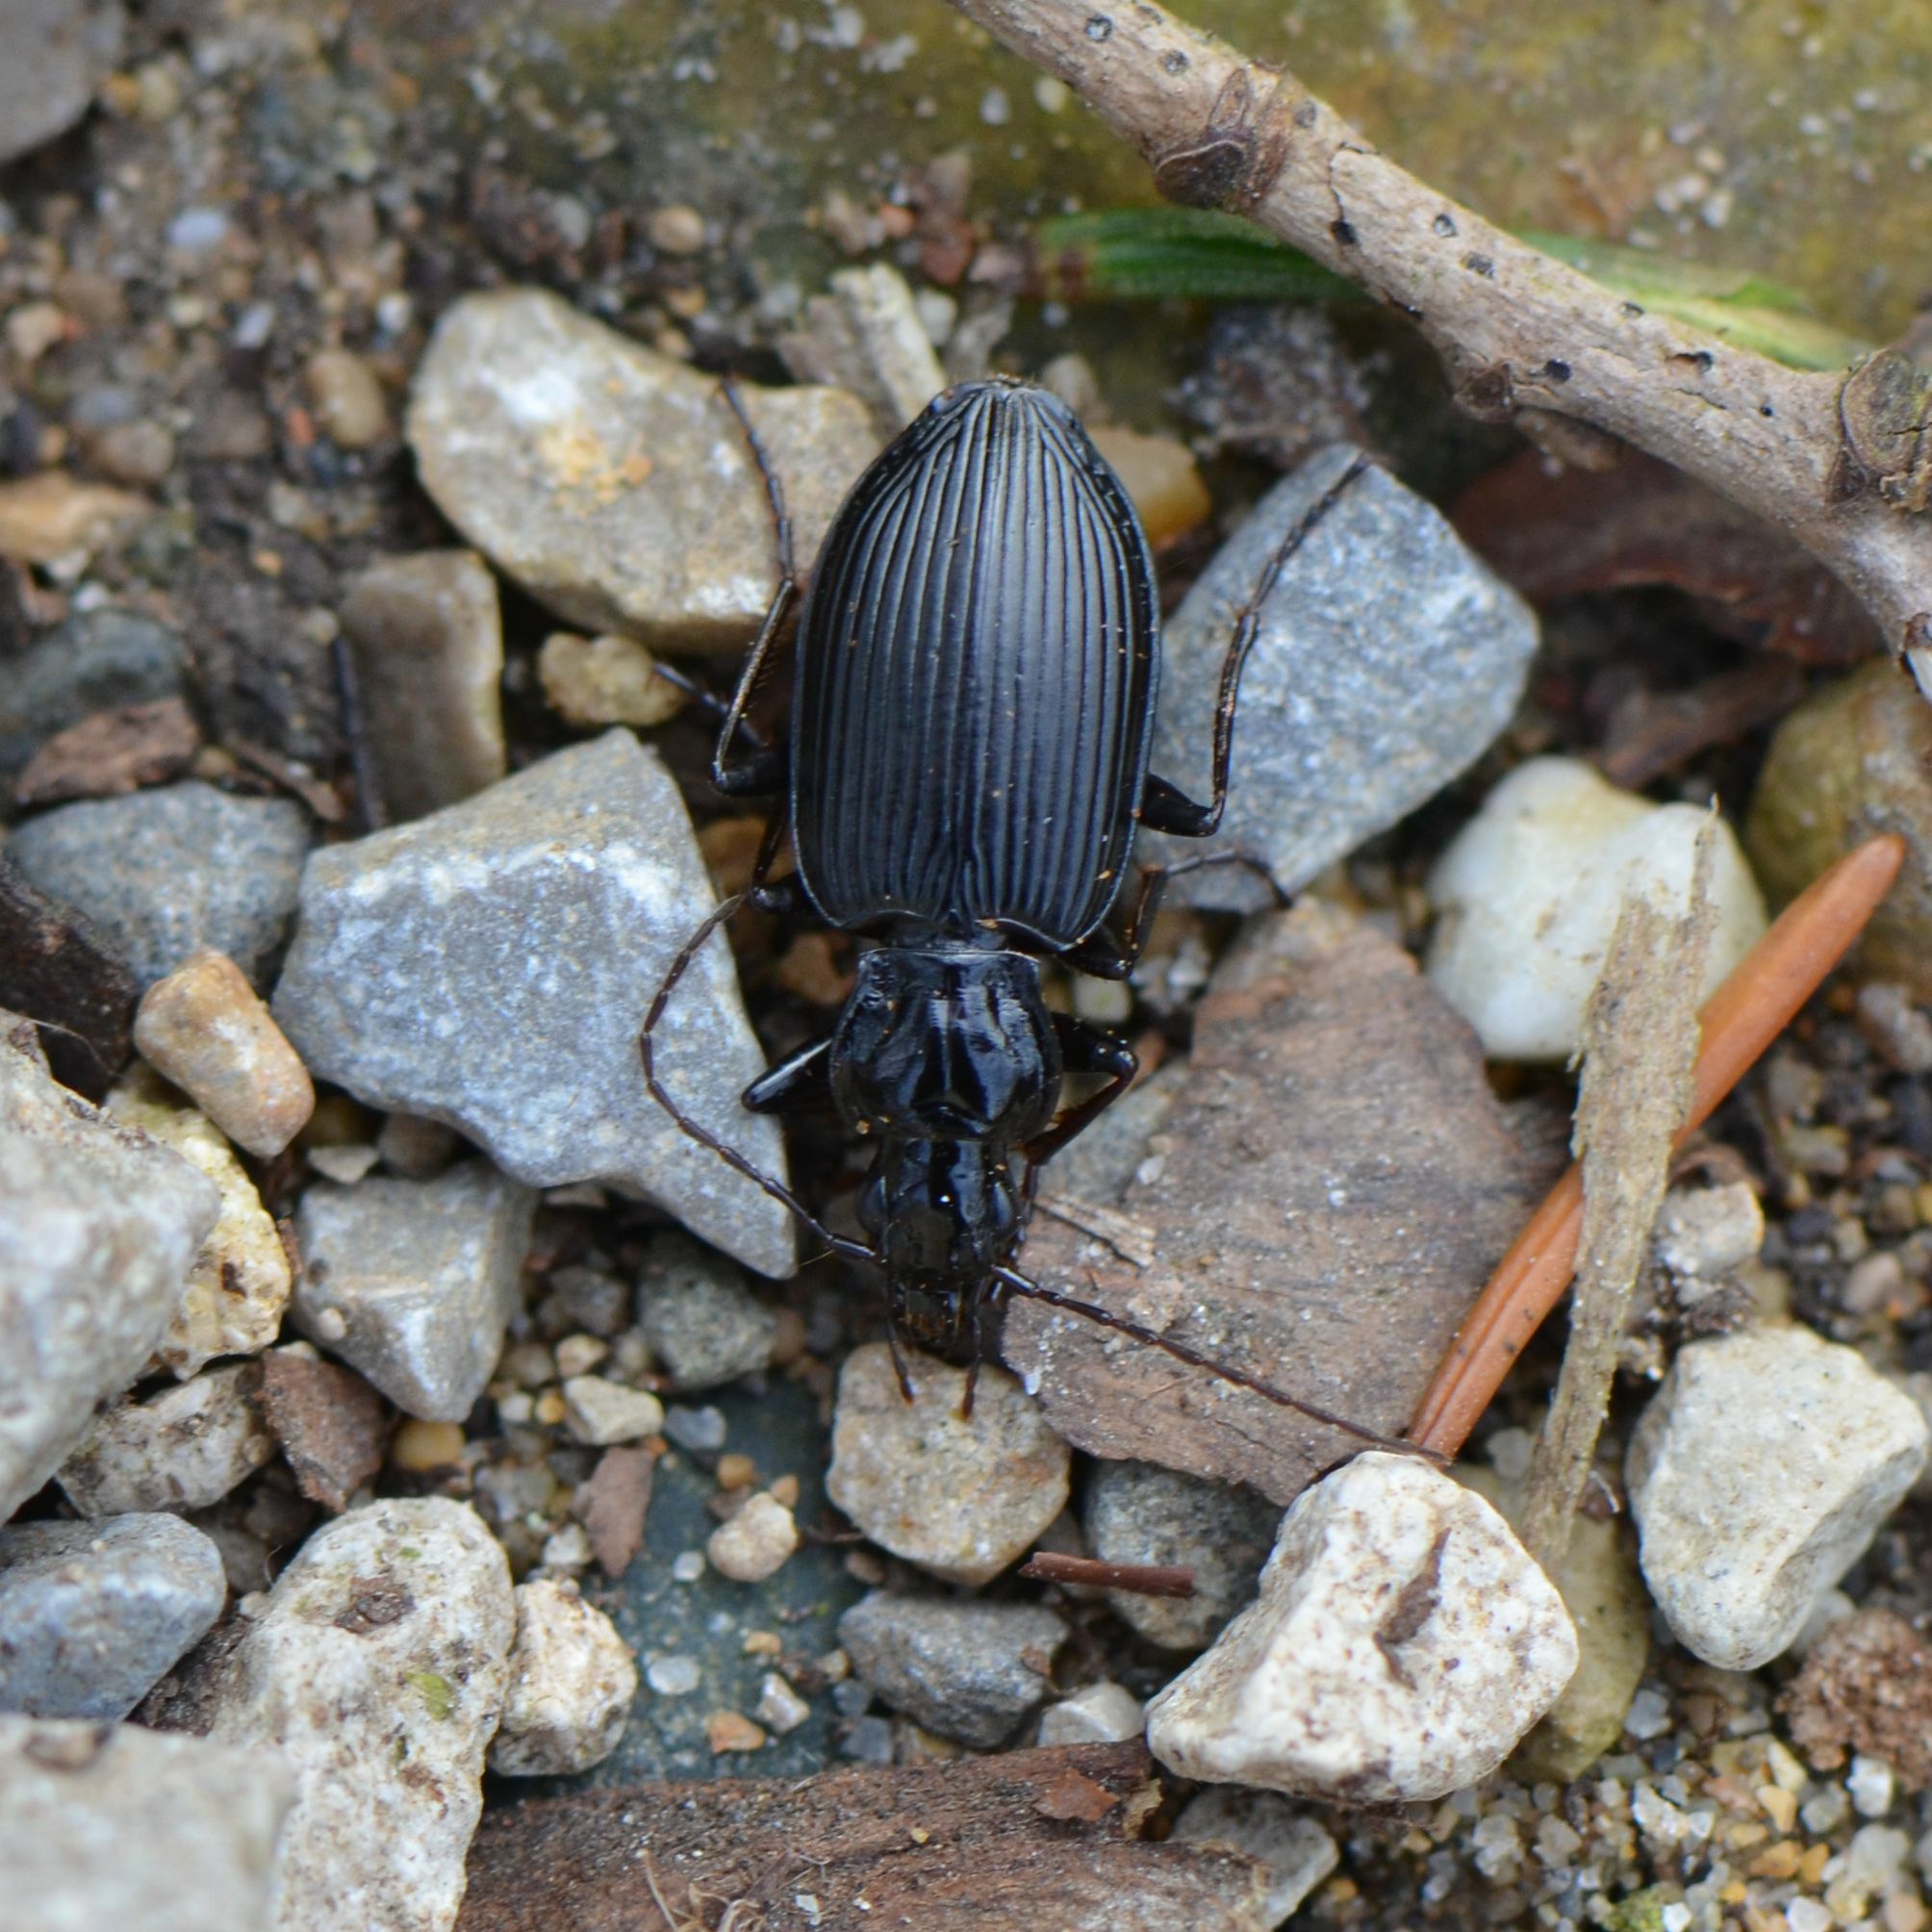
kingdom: Animalia
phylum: Arthropoda
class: Insecta
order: Coleoptera
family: Carabidae
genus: Platynus
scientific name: Platynus assimilis
